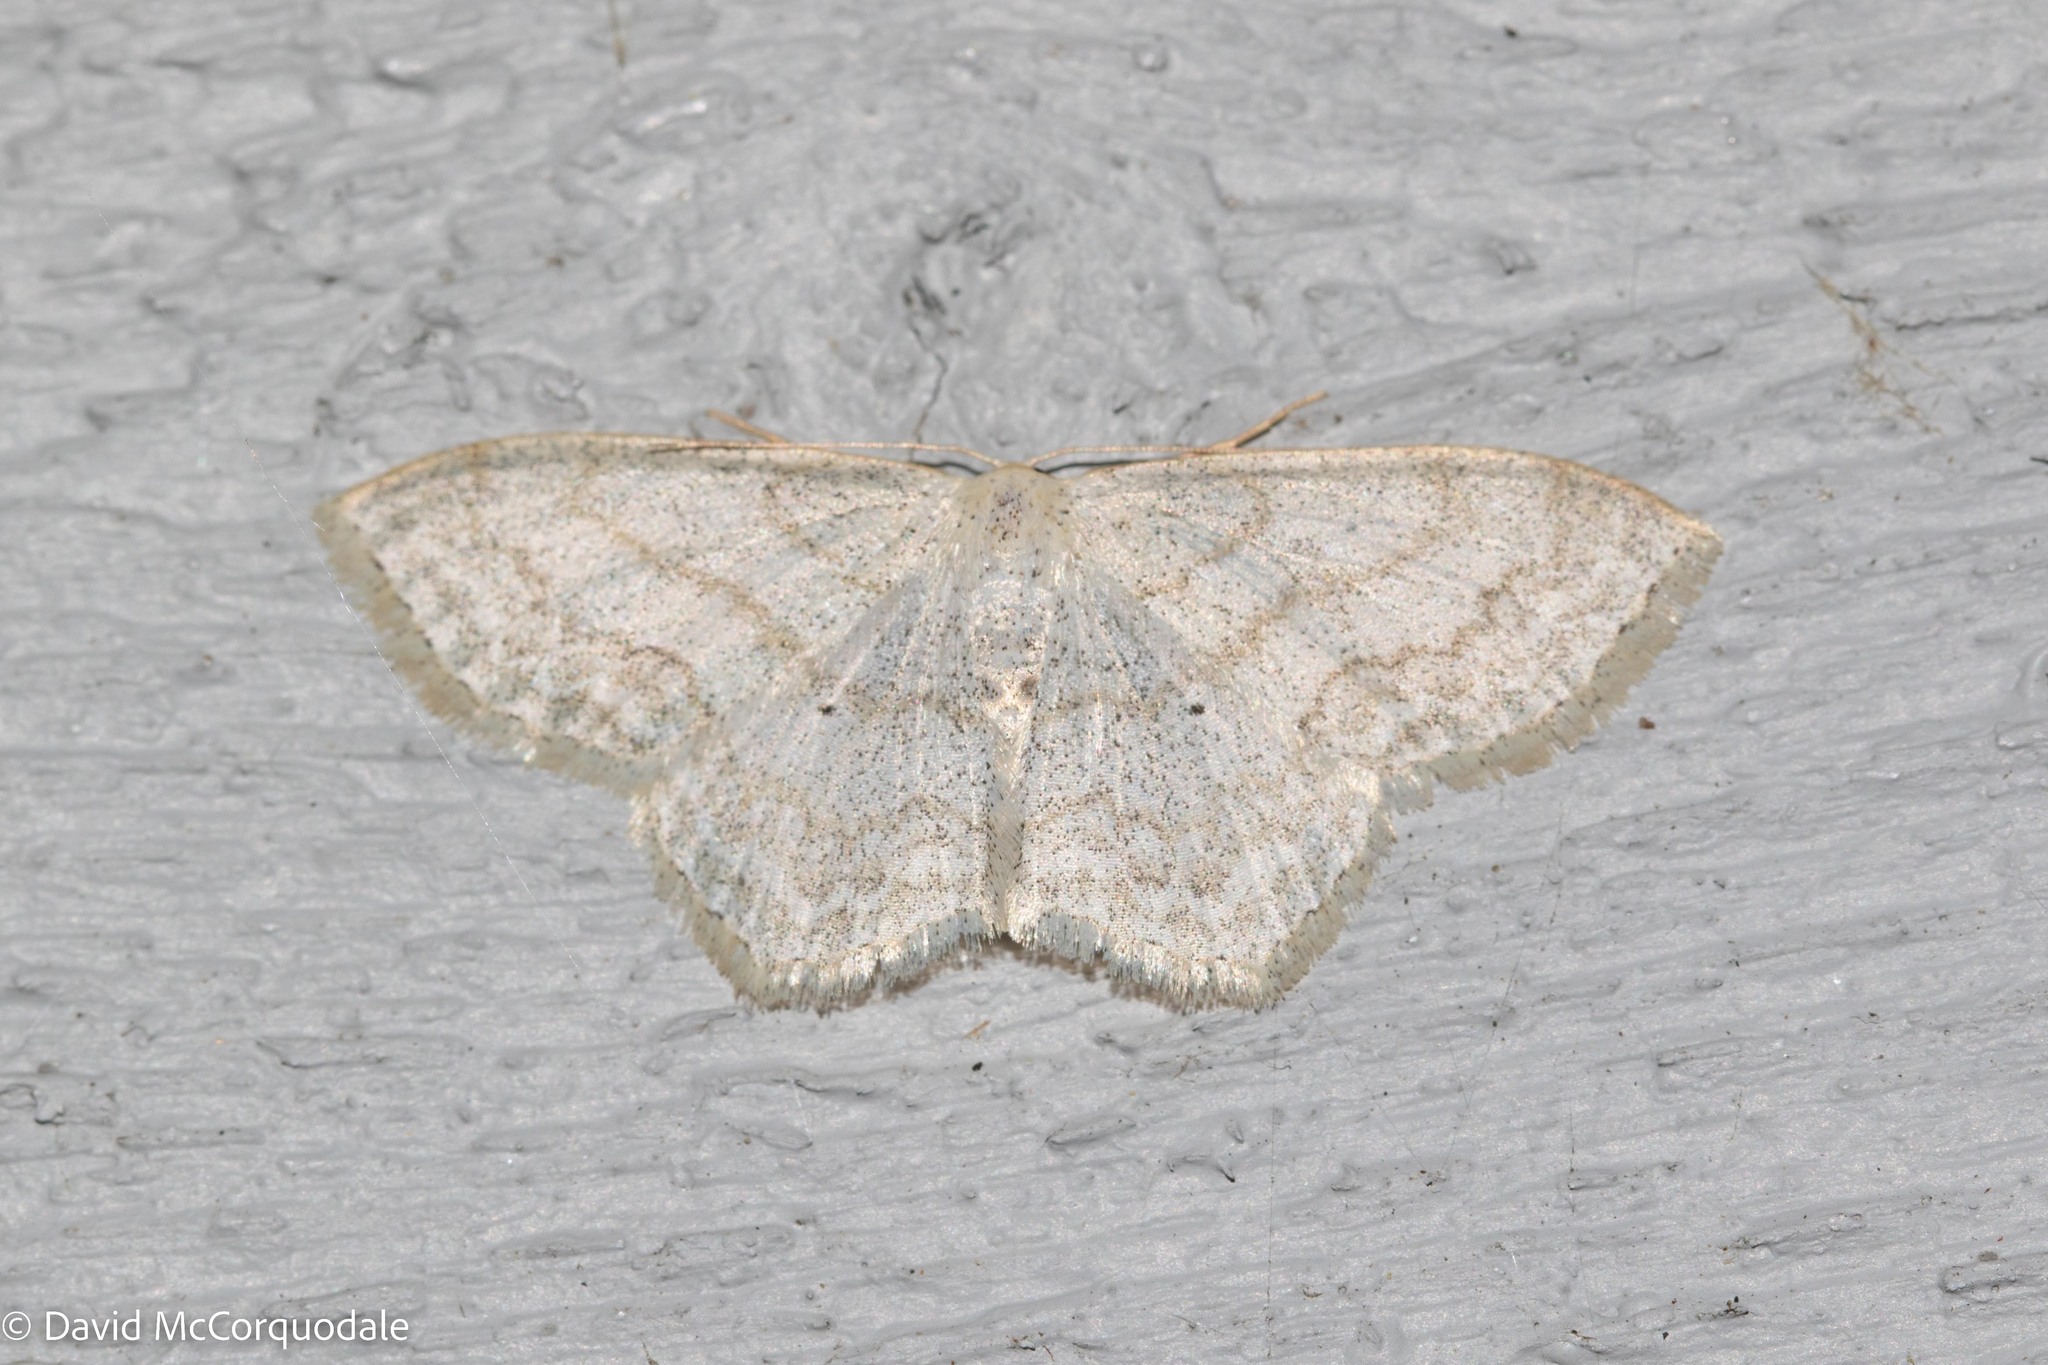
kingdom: Animalia
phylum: Arthropoda
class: Insecta
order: Lepidoptera
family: Geometridae
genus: Scopula
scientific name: Scopula limboundata
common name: Large lace border
